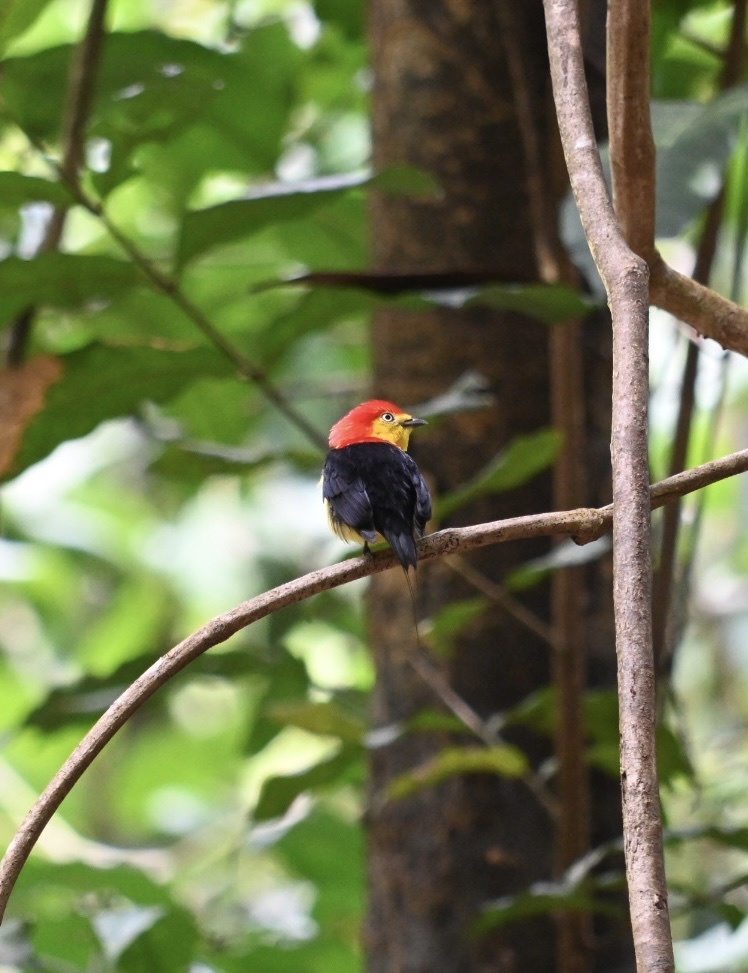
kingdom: Animalia
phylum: Chordata
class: Aves
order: Passeriformes
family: Pipridae
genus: Pipra
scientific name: Pipra filicauda
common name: Wire-tailed manakin
